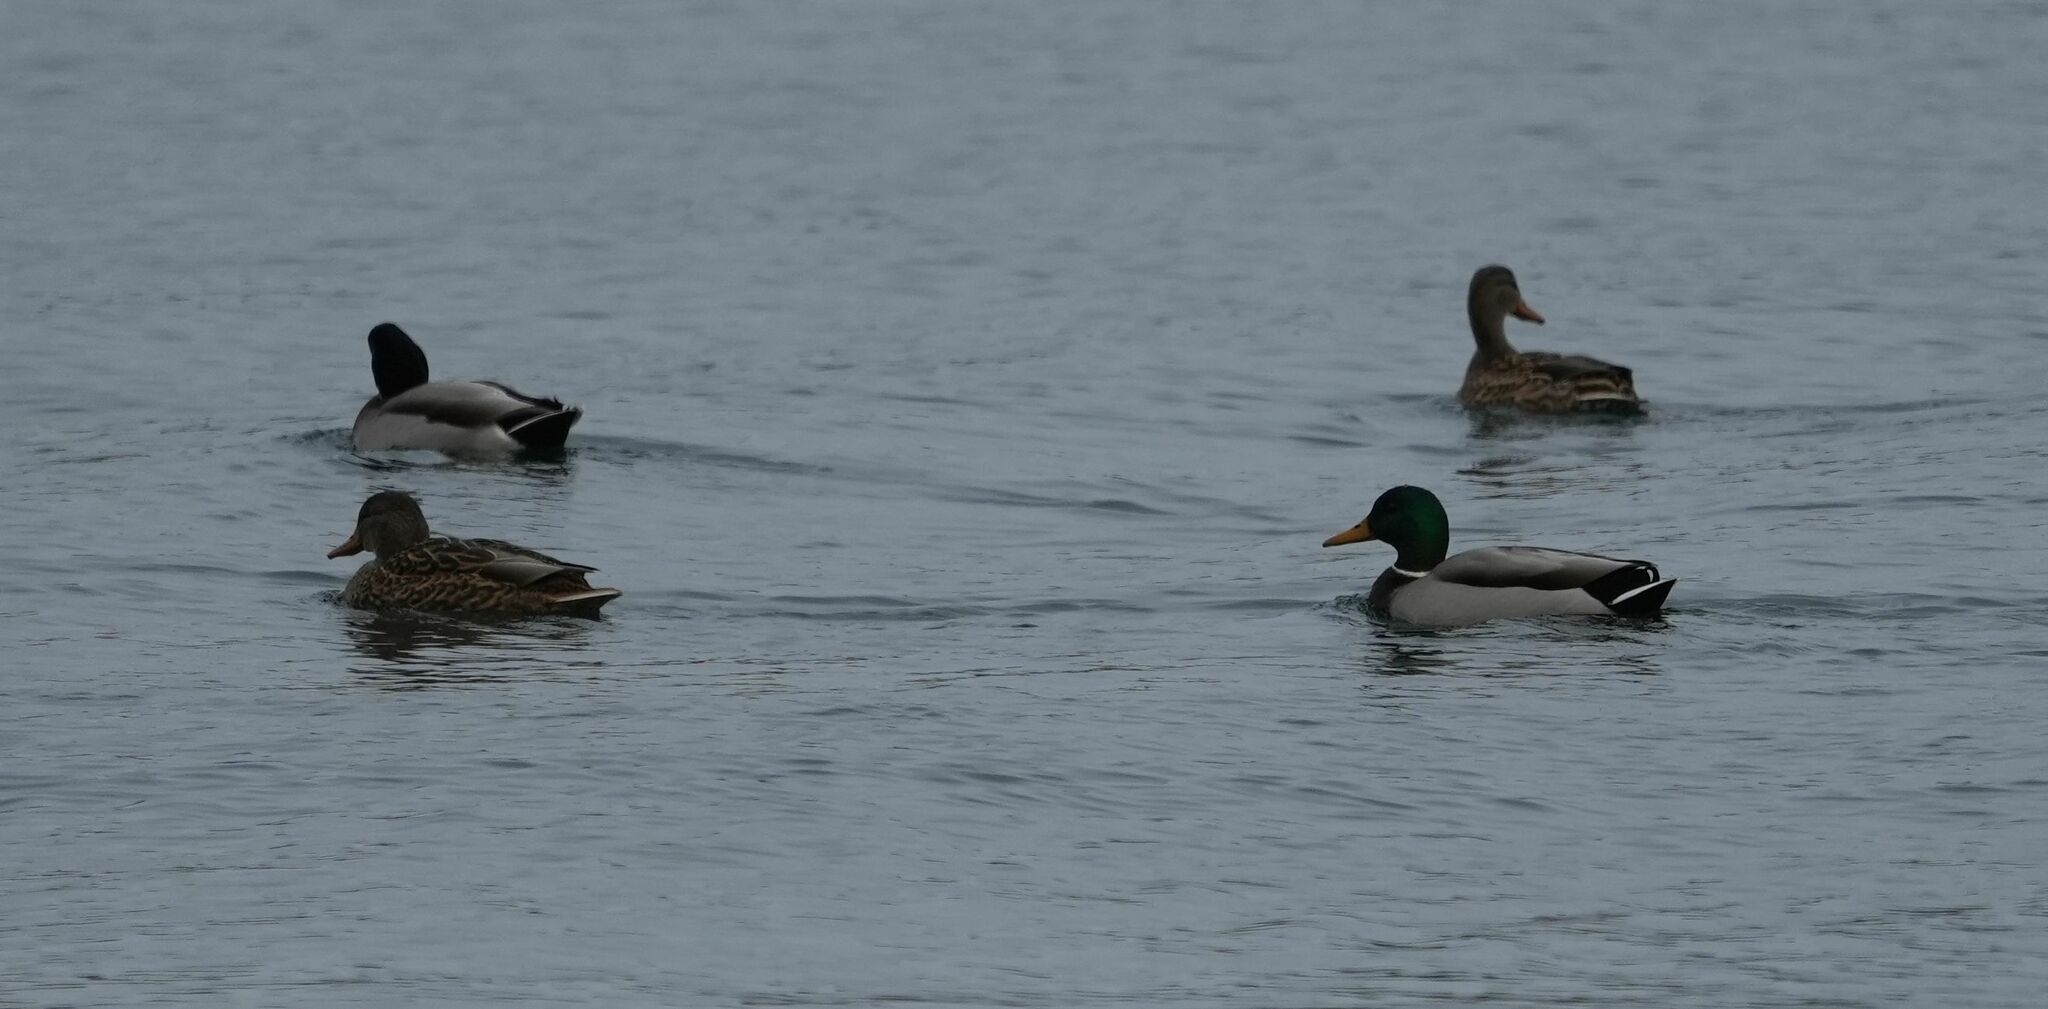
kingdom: Animalia
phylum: Chordata
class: Aves
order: Anseriformes
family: Anatidae
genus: Anas
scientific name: Anas platyrhynchos
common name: Mallard
